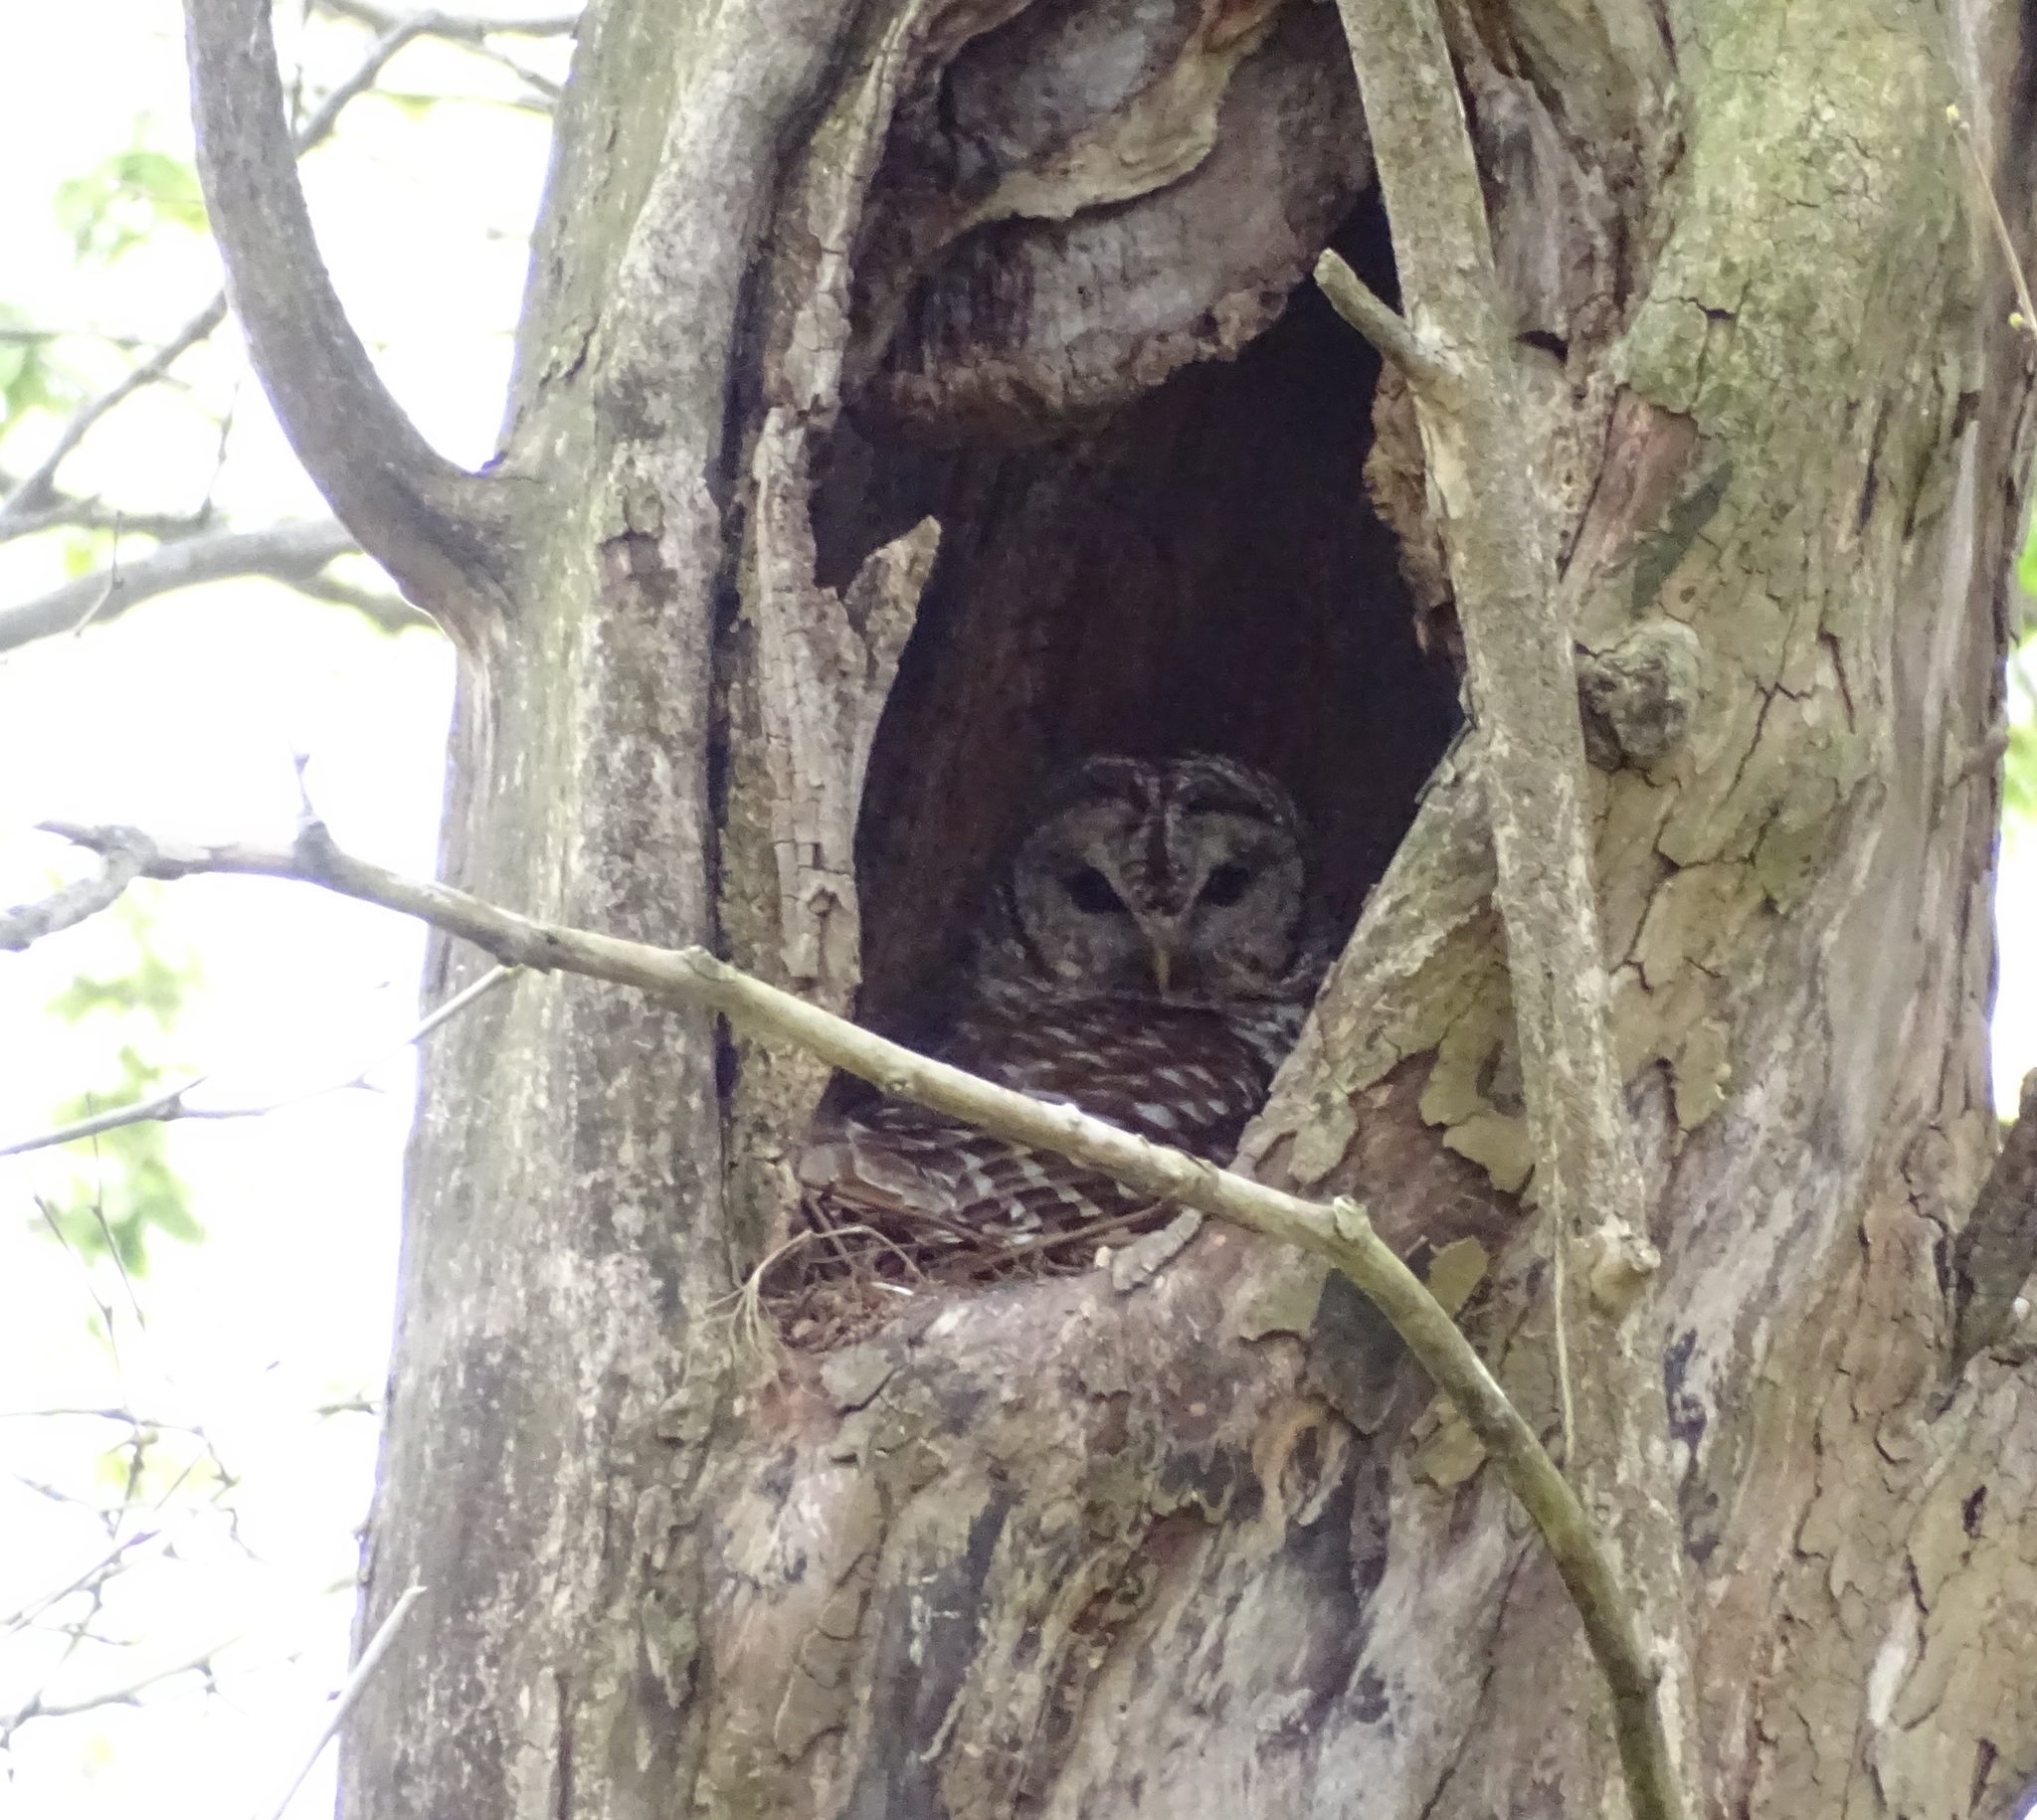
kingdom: Animalia
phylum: Chordata
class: Aves
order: Strigiformes
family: Strigidae
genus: Strix
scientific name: Strix varia
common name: Barred owl
